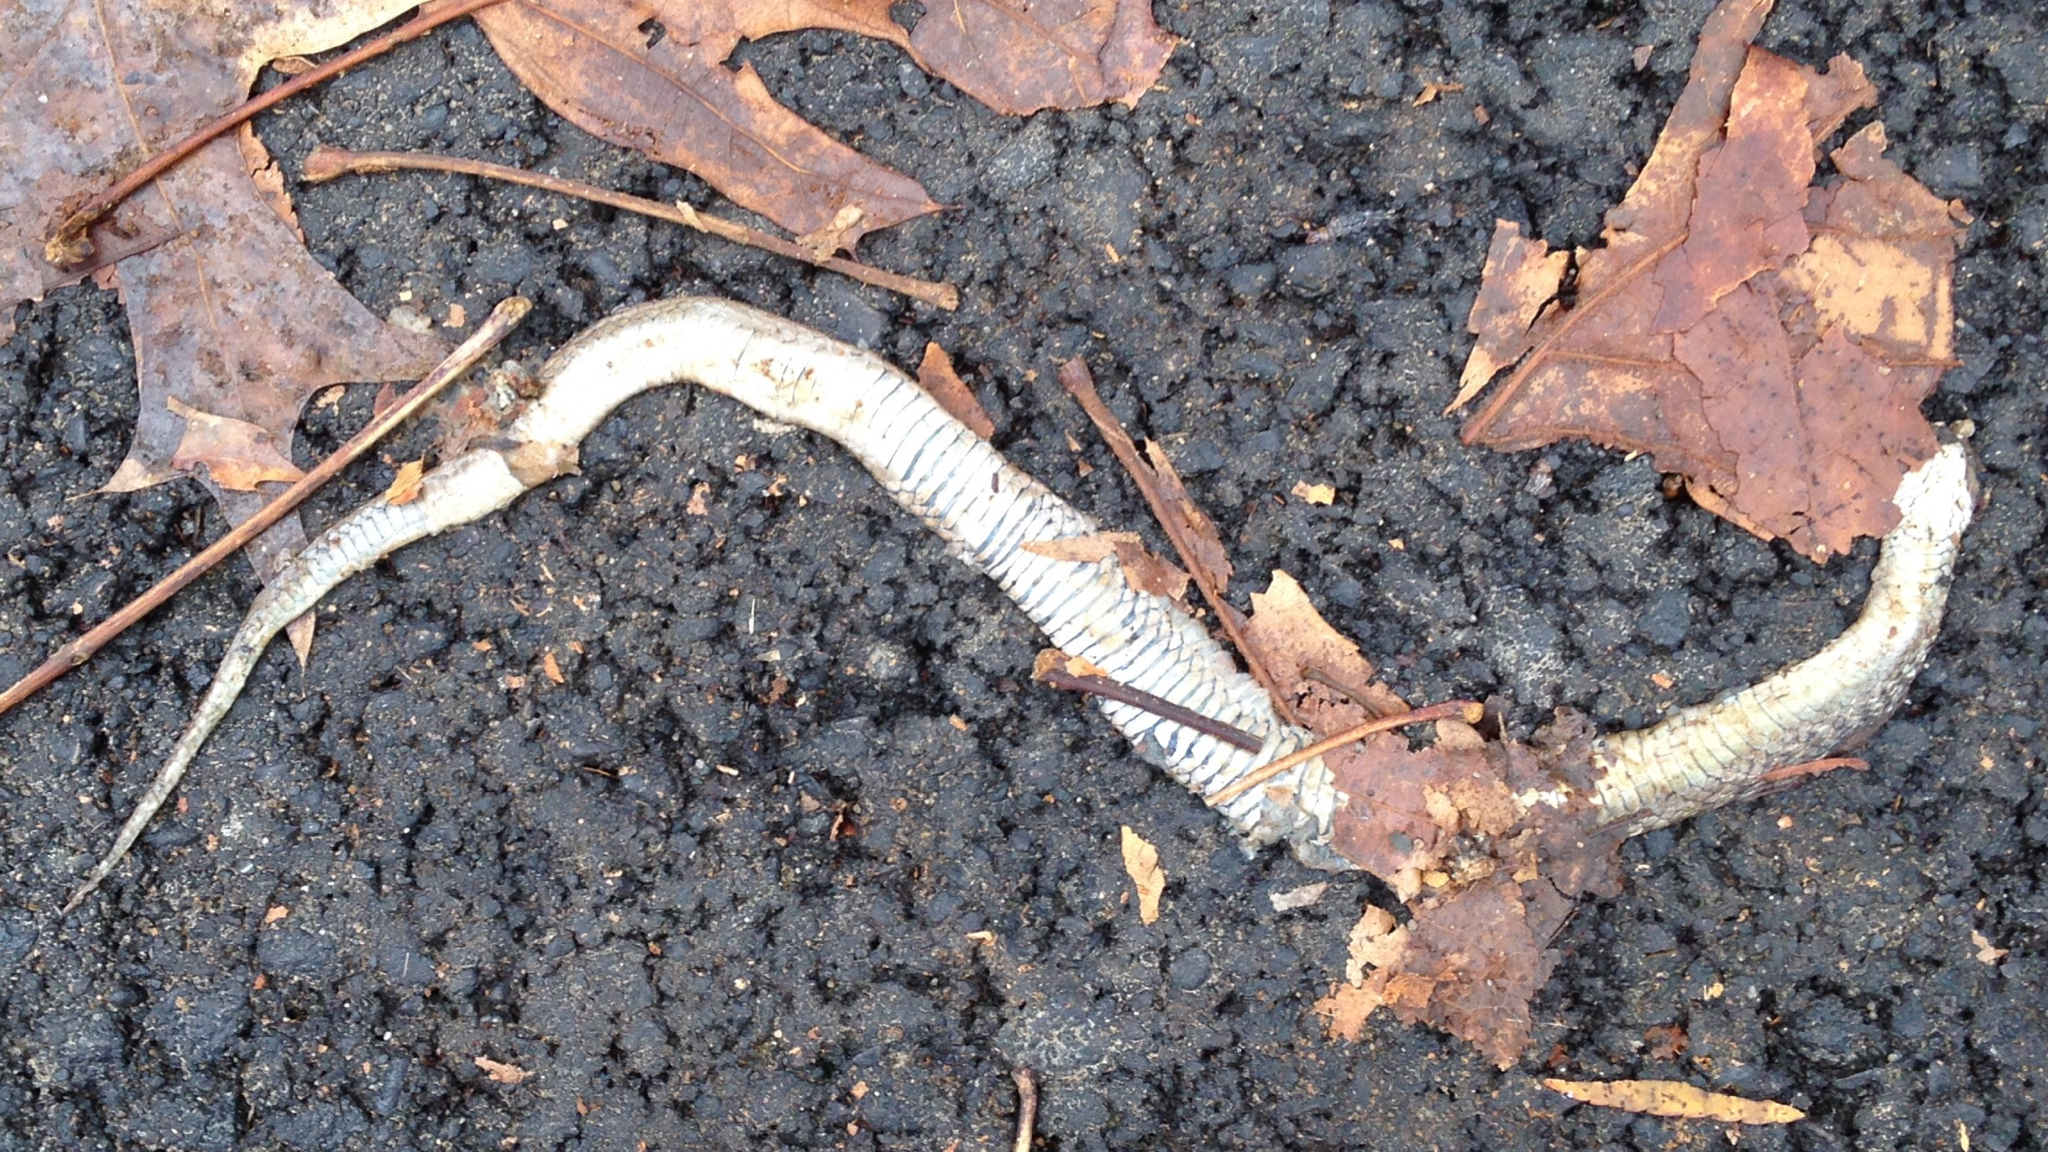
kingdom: Animalia
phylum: Chordata
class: Squamata
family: Colubridae
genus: Storeria
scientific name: Storeria dekayi
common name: (dekay’s) brown snake
